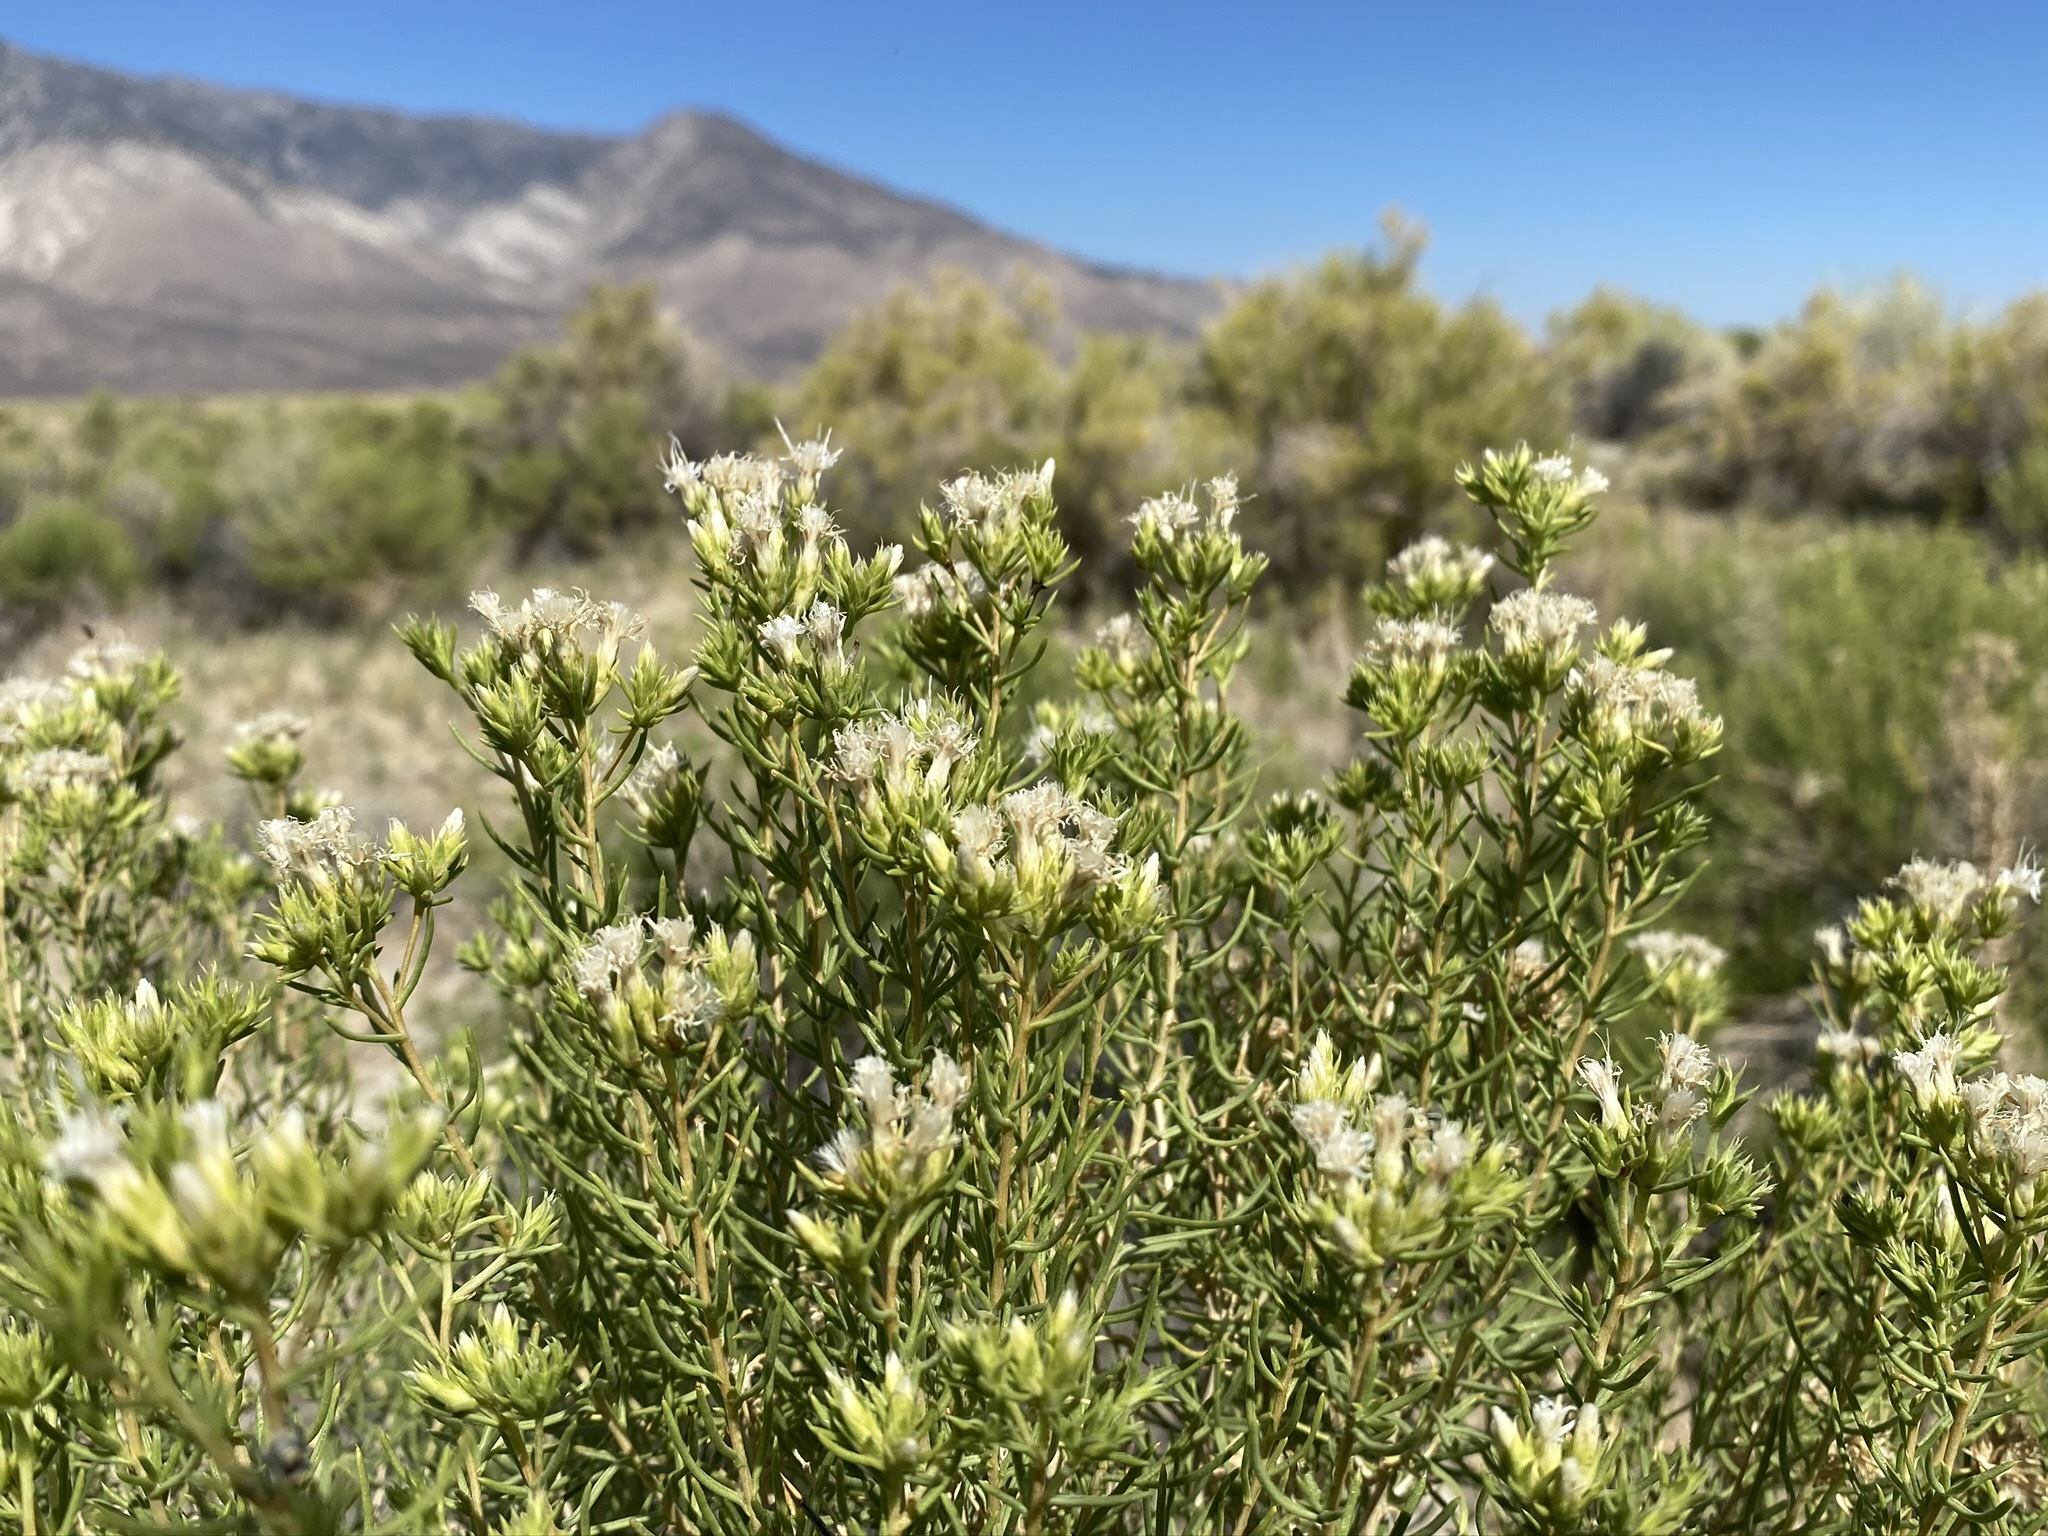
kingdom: Plantae
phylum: Tracheophyta
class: Magnoliopsida
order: Asterales
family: Asteraceae
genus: Ericameria
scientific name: Ericameria albida
